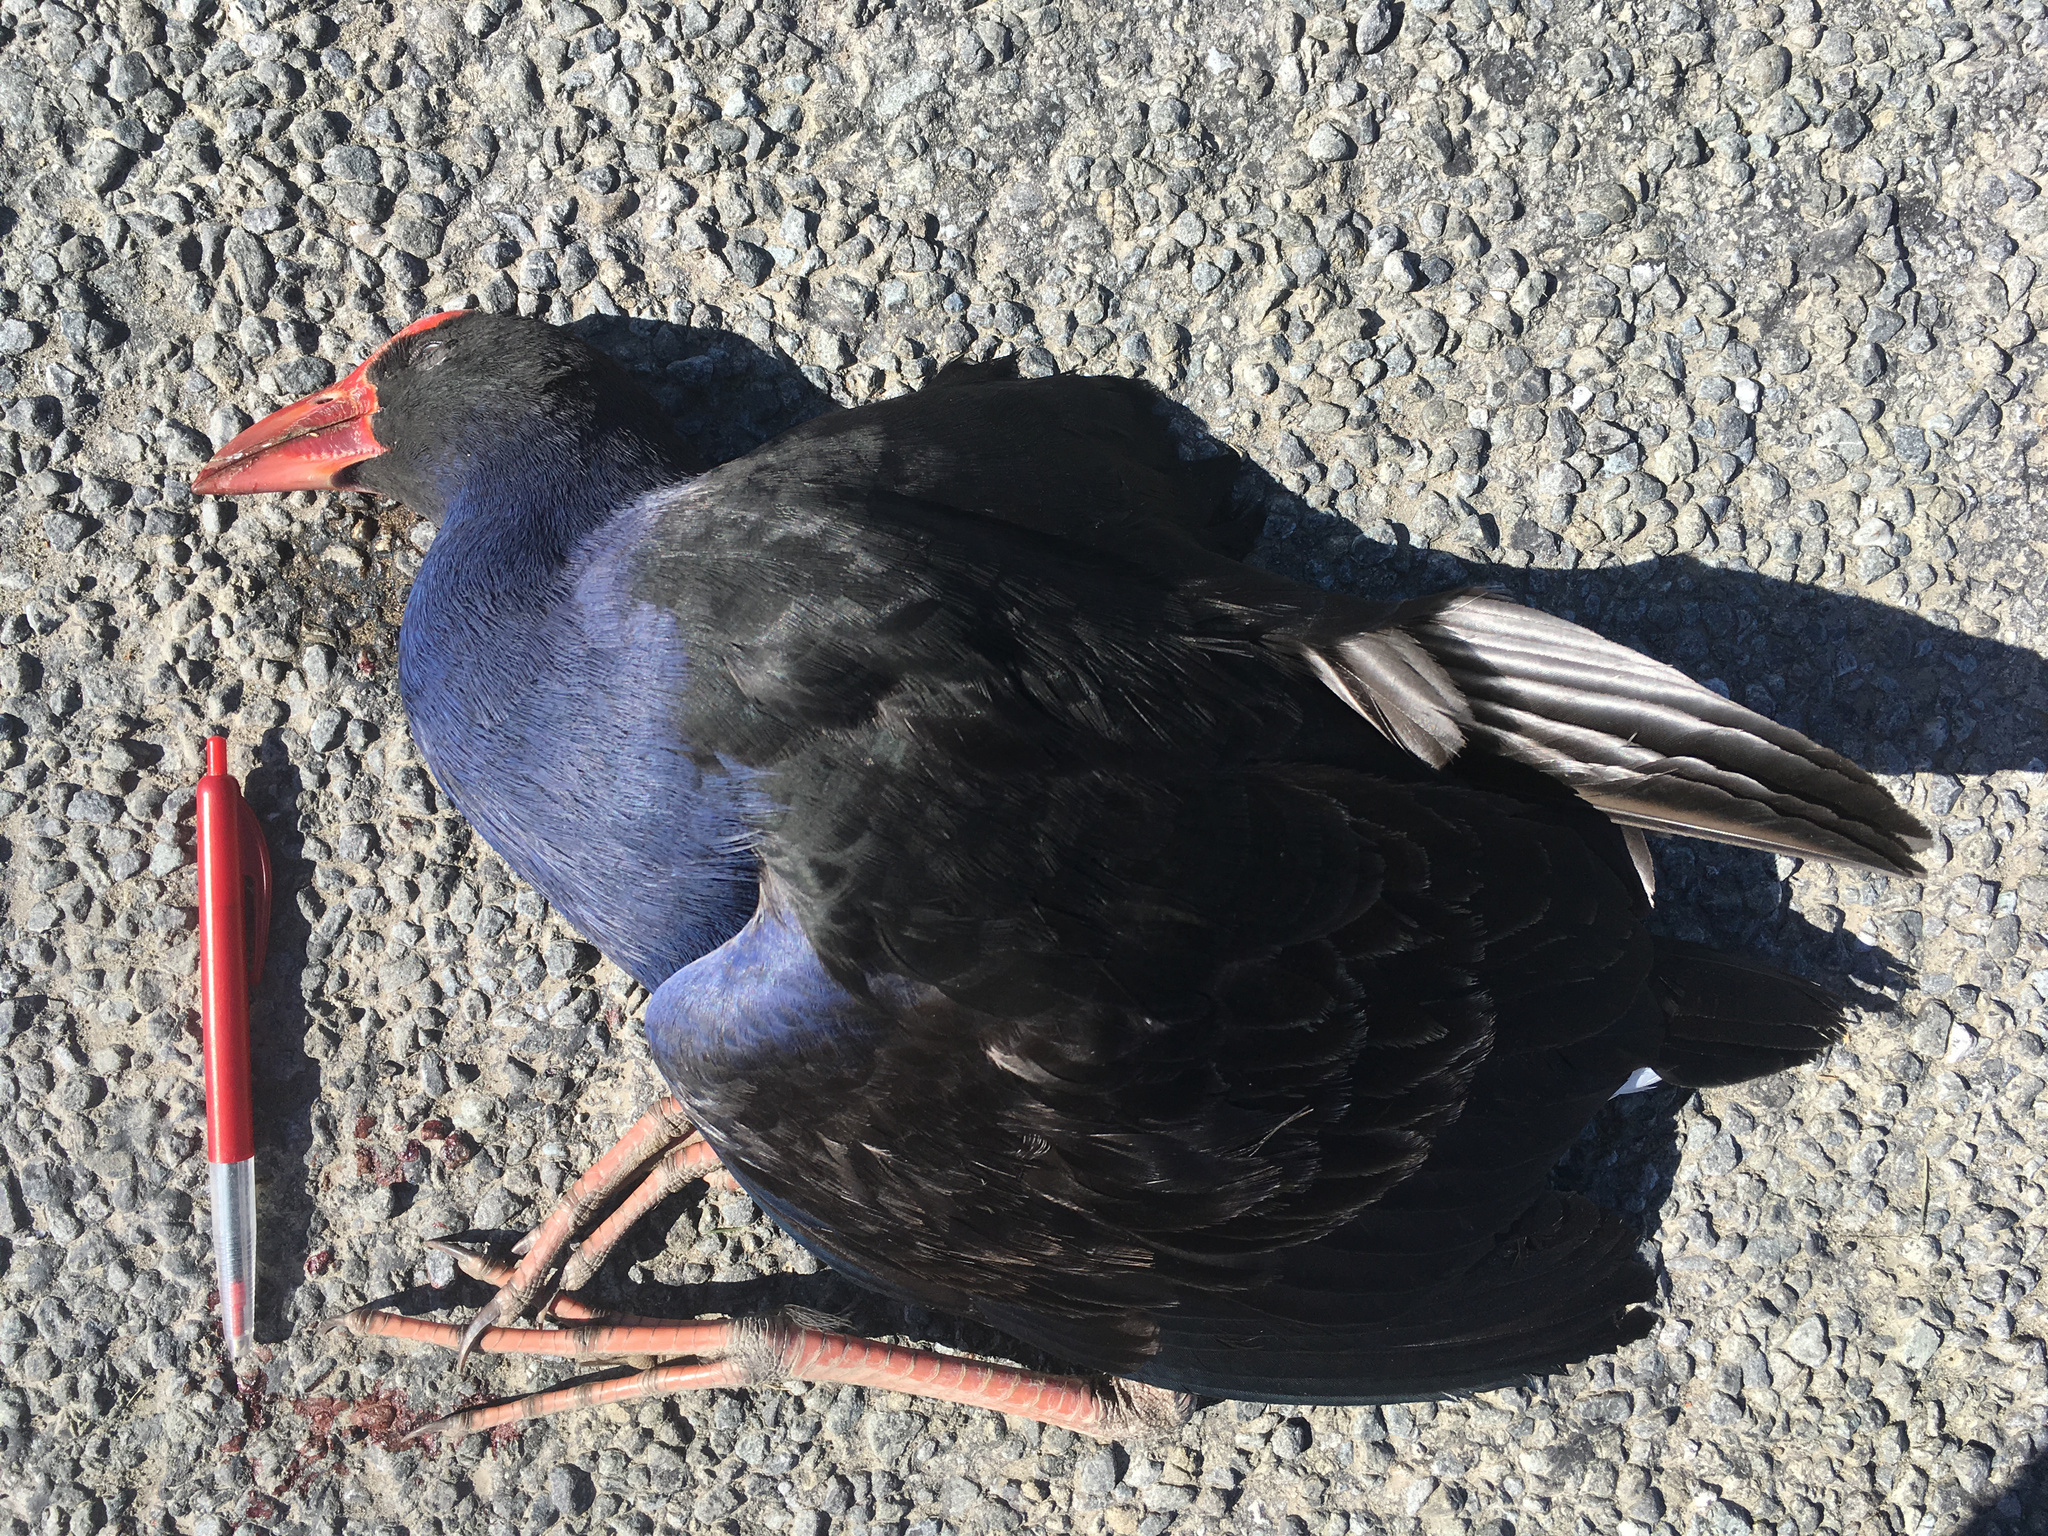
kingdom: Animalia
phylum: Chordata
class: Aves
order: Gruiformes
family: Rallidae
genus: Porphyrio
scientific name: Porphyrio melanotus
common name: Australasian swamphen
